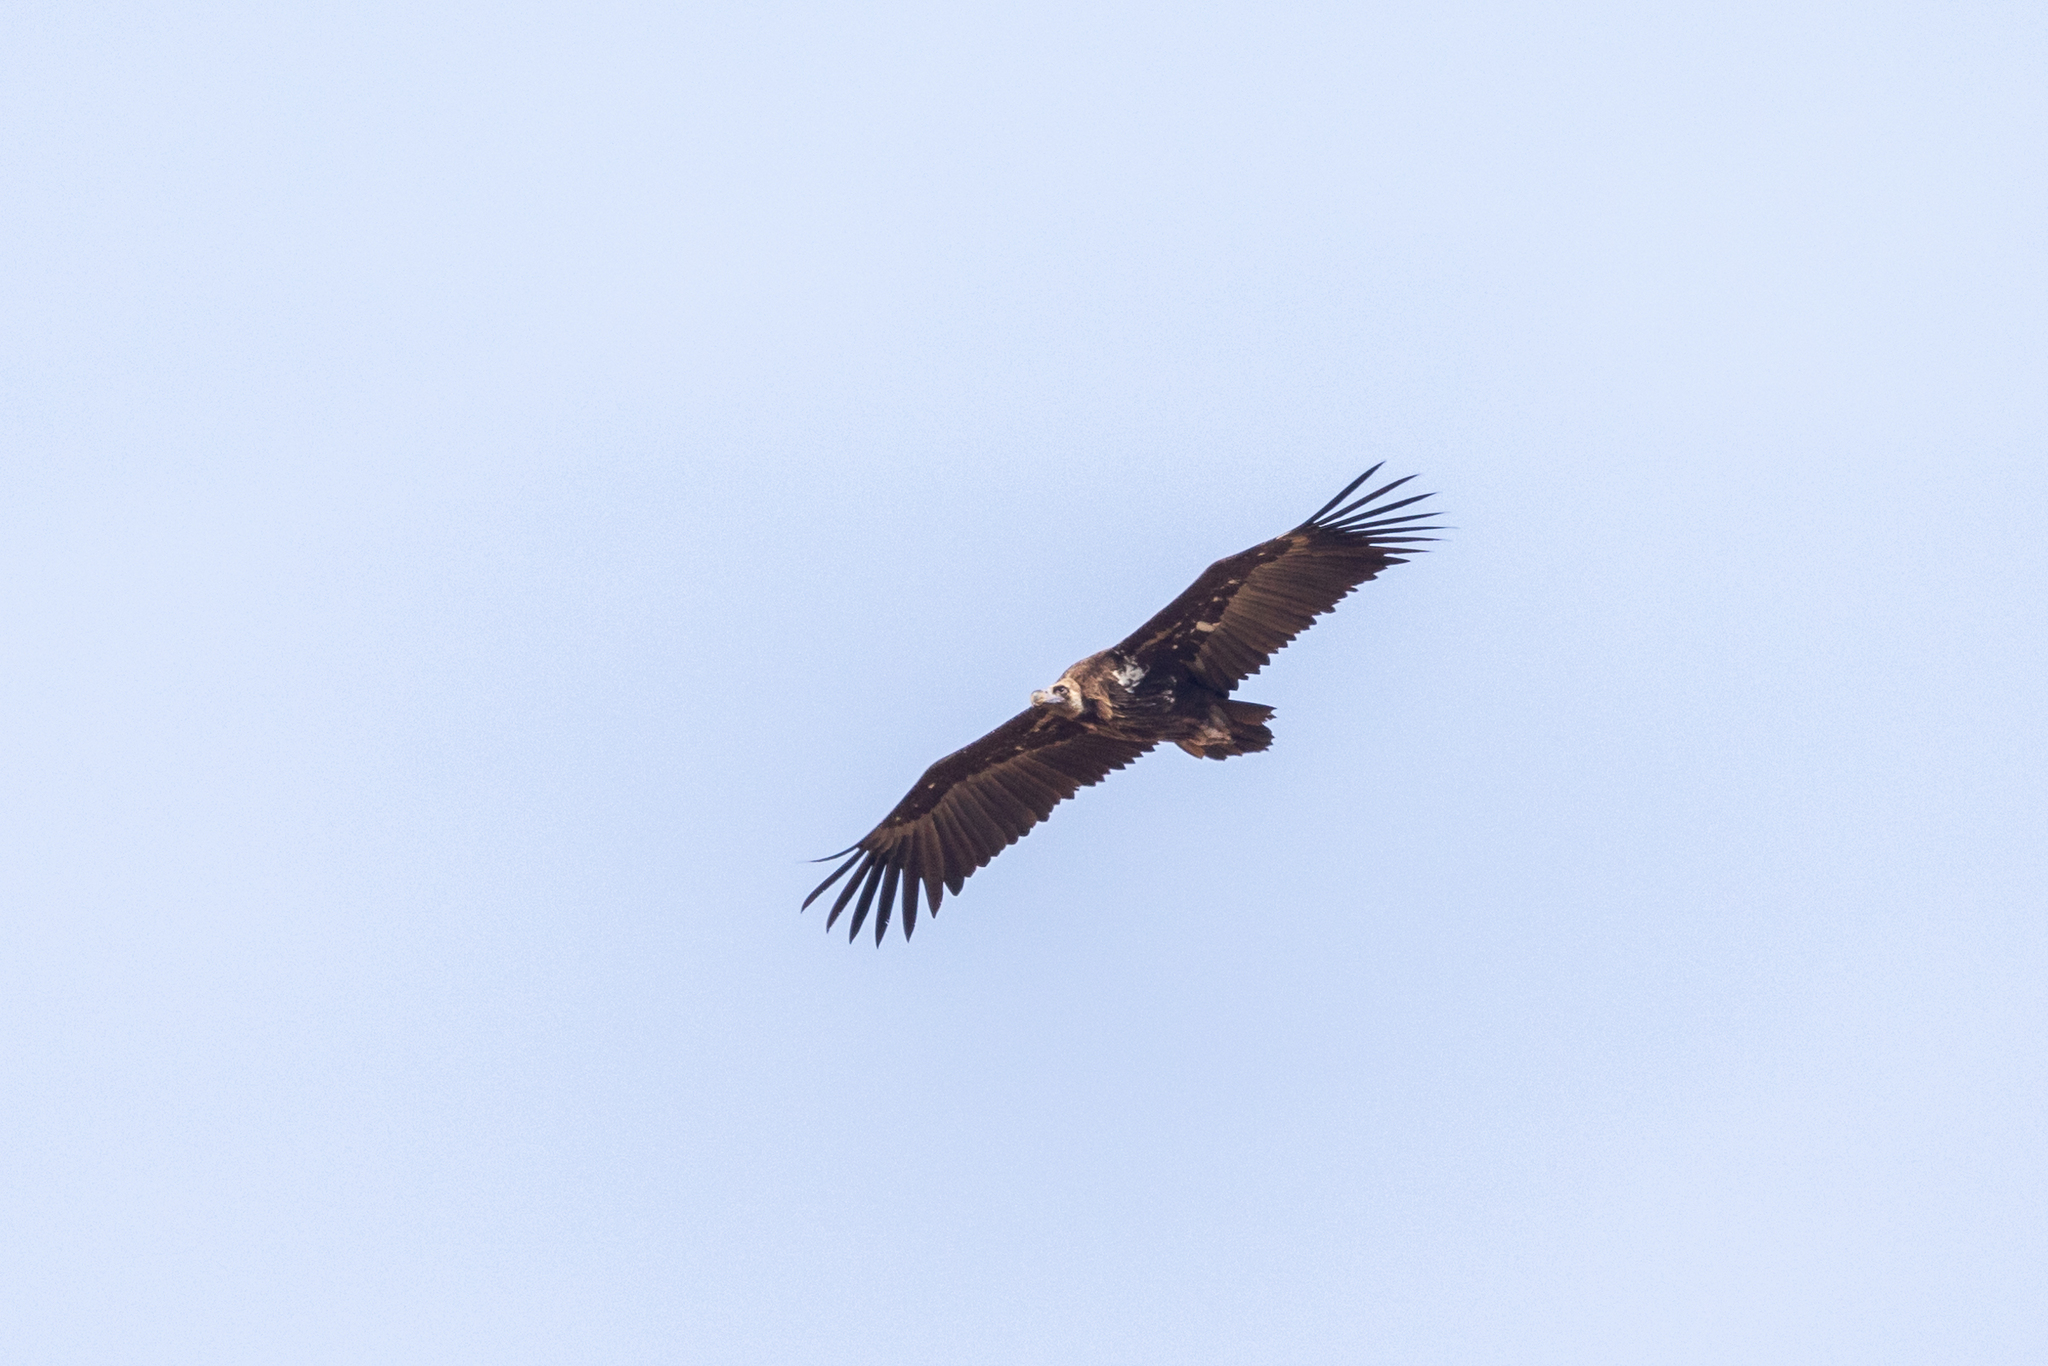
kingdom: Animalia
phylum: Chordata
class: Aves
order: Accipitriformes
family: Accipitridae
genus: Aegypius
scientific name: Aegypius monachus
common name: Cinereous vulture
